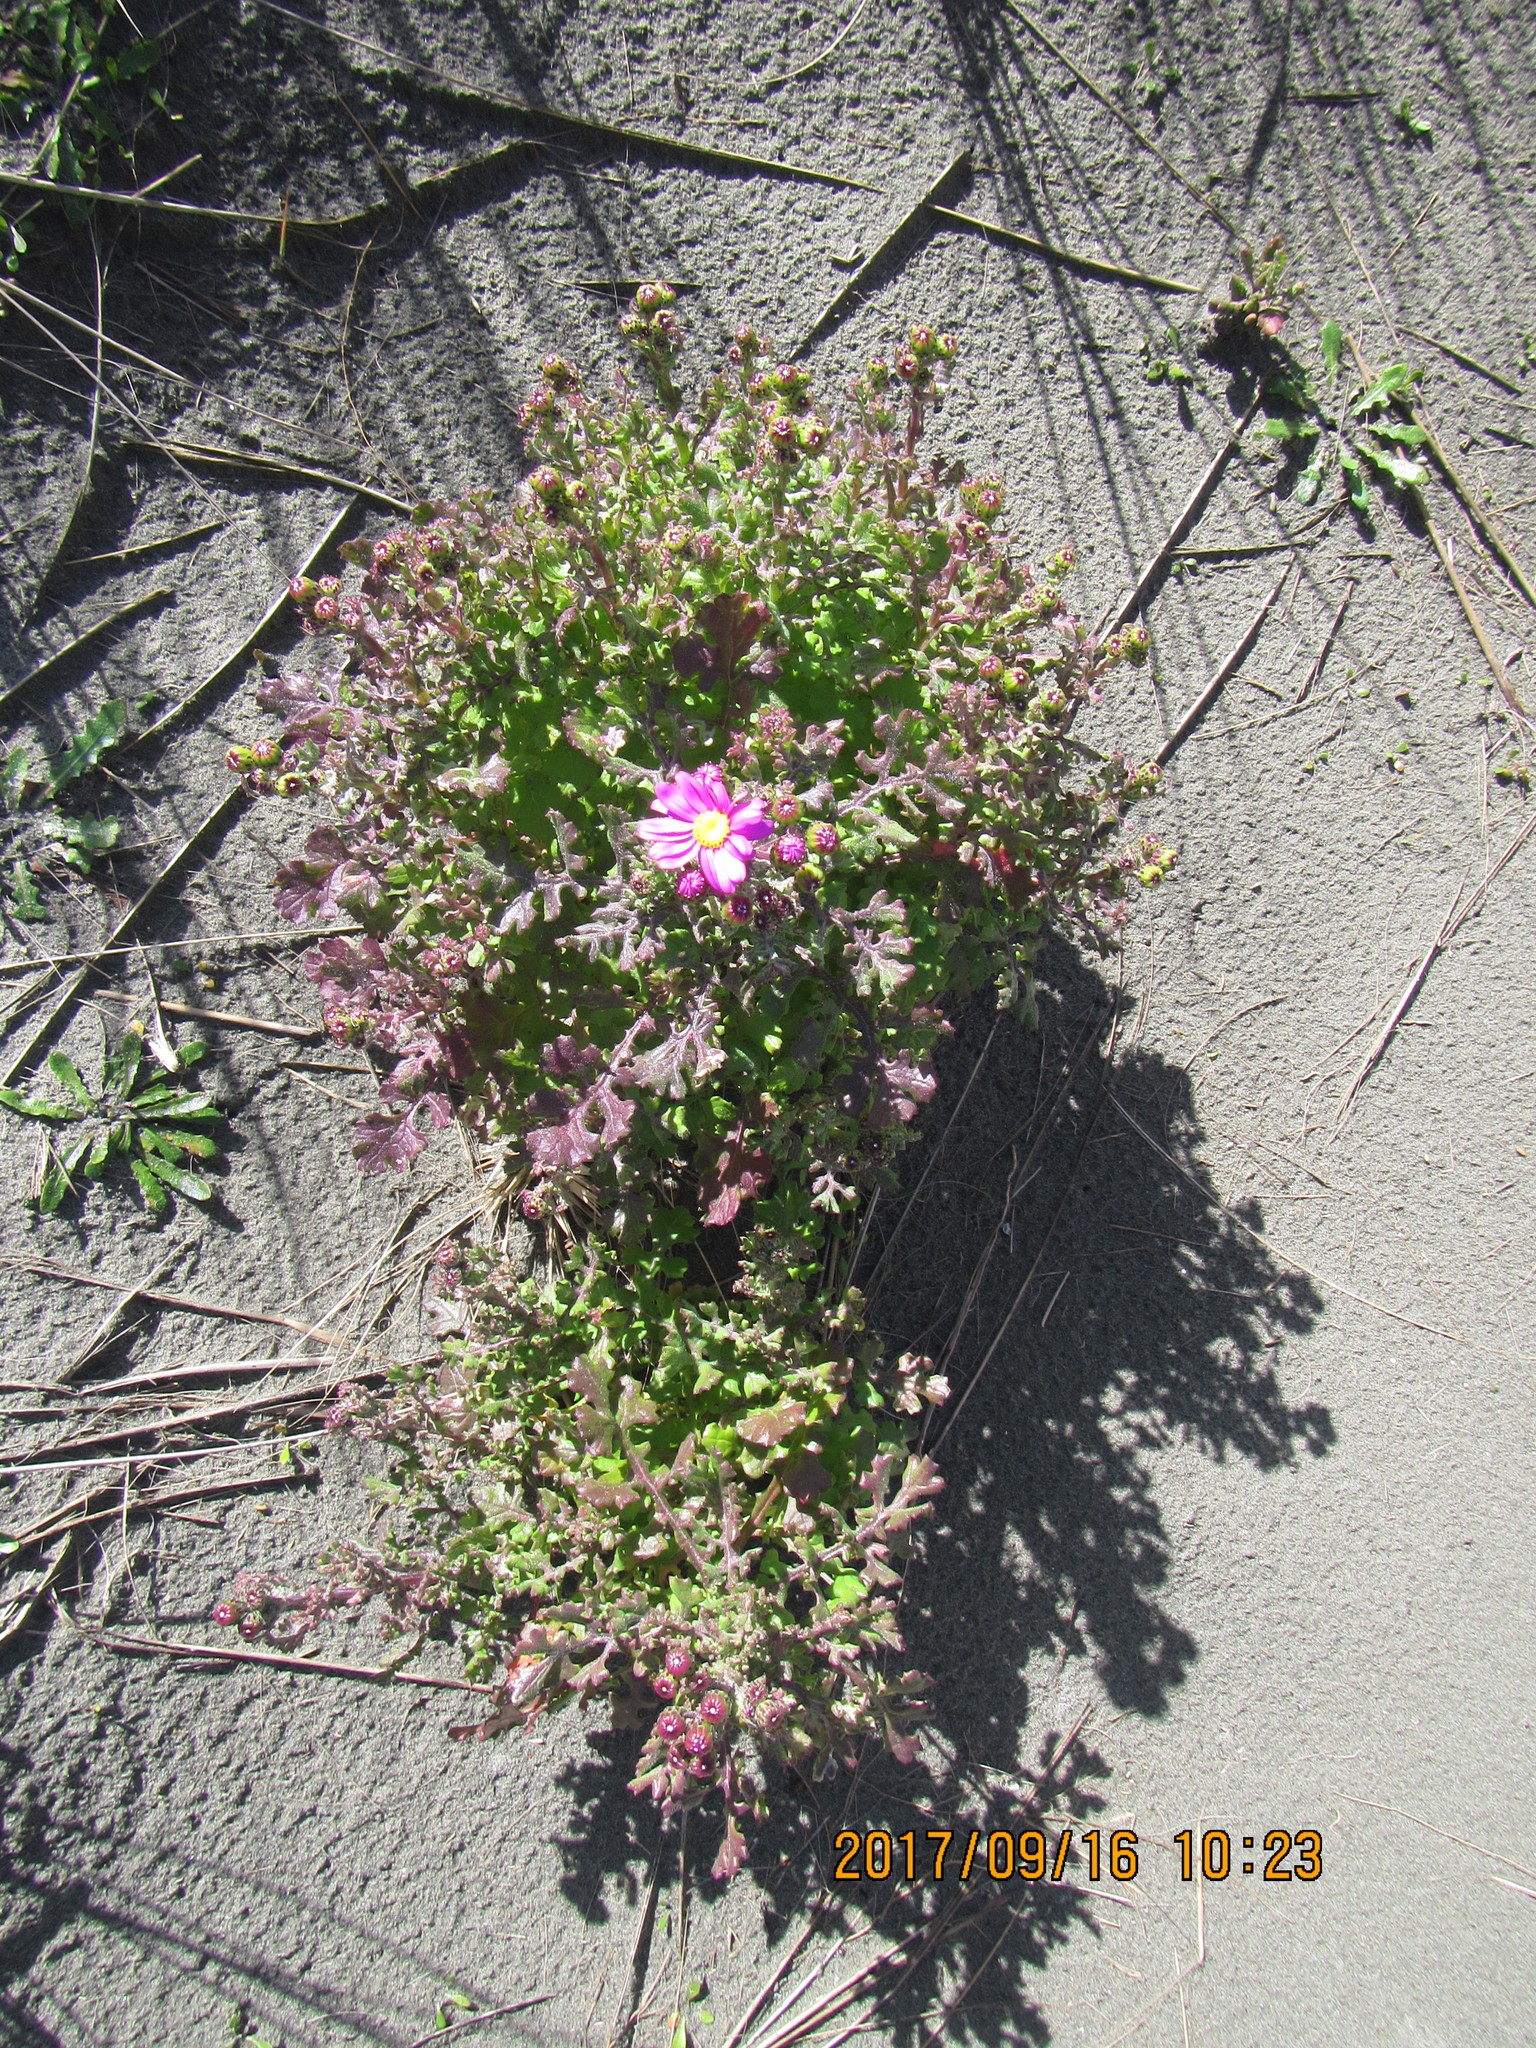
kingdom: Plantae
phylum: Tracheophyta
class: Magnoliopsida
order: Asterales
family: Asteraceae
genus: Senecio
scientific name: Senecio elegans
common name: Purple groundsel
